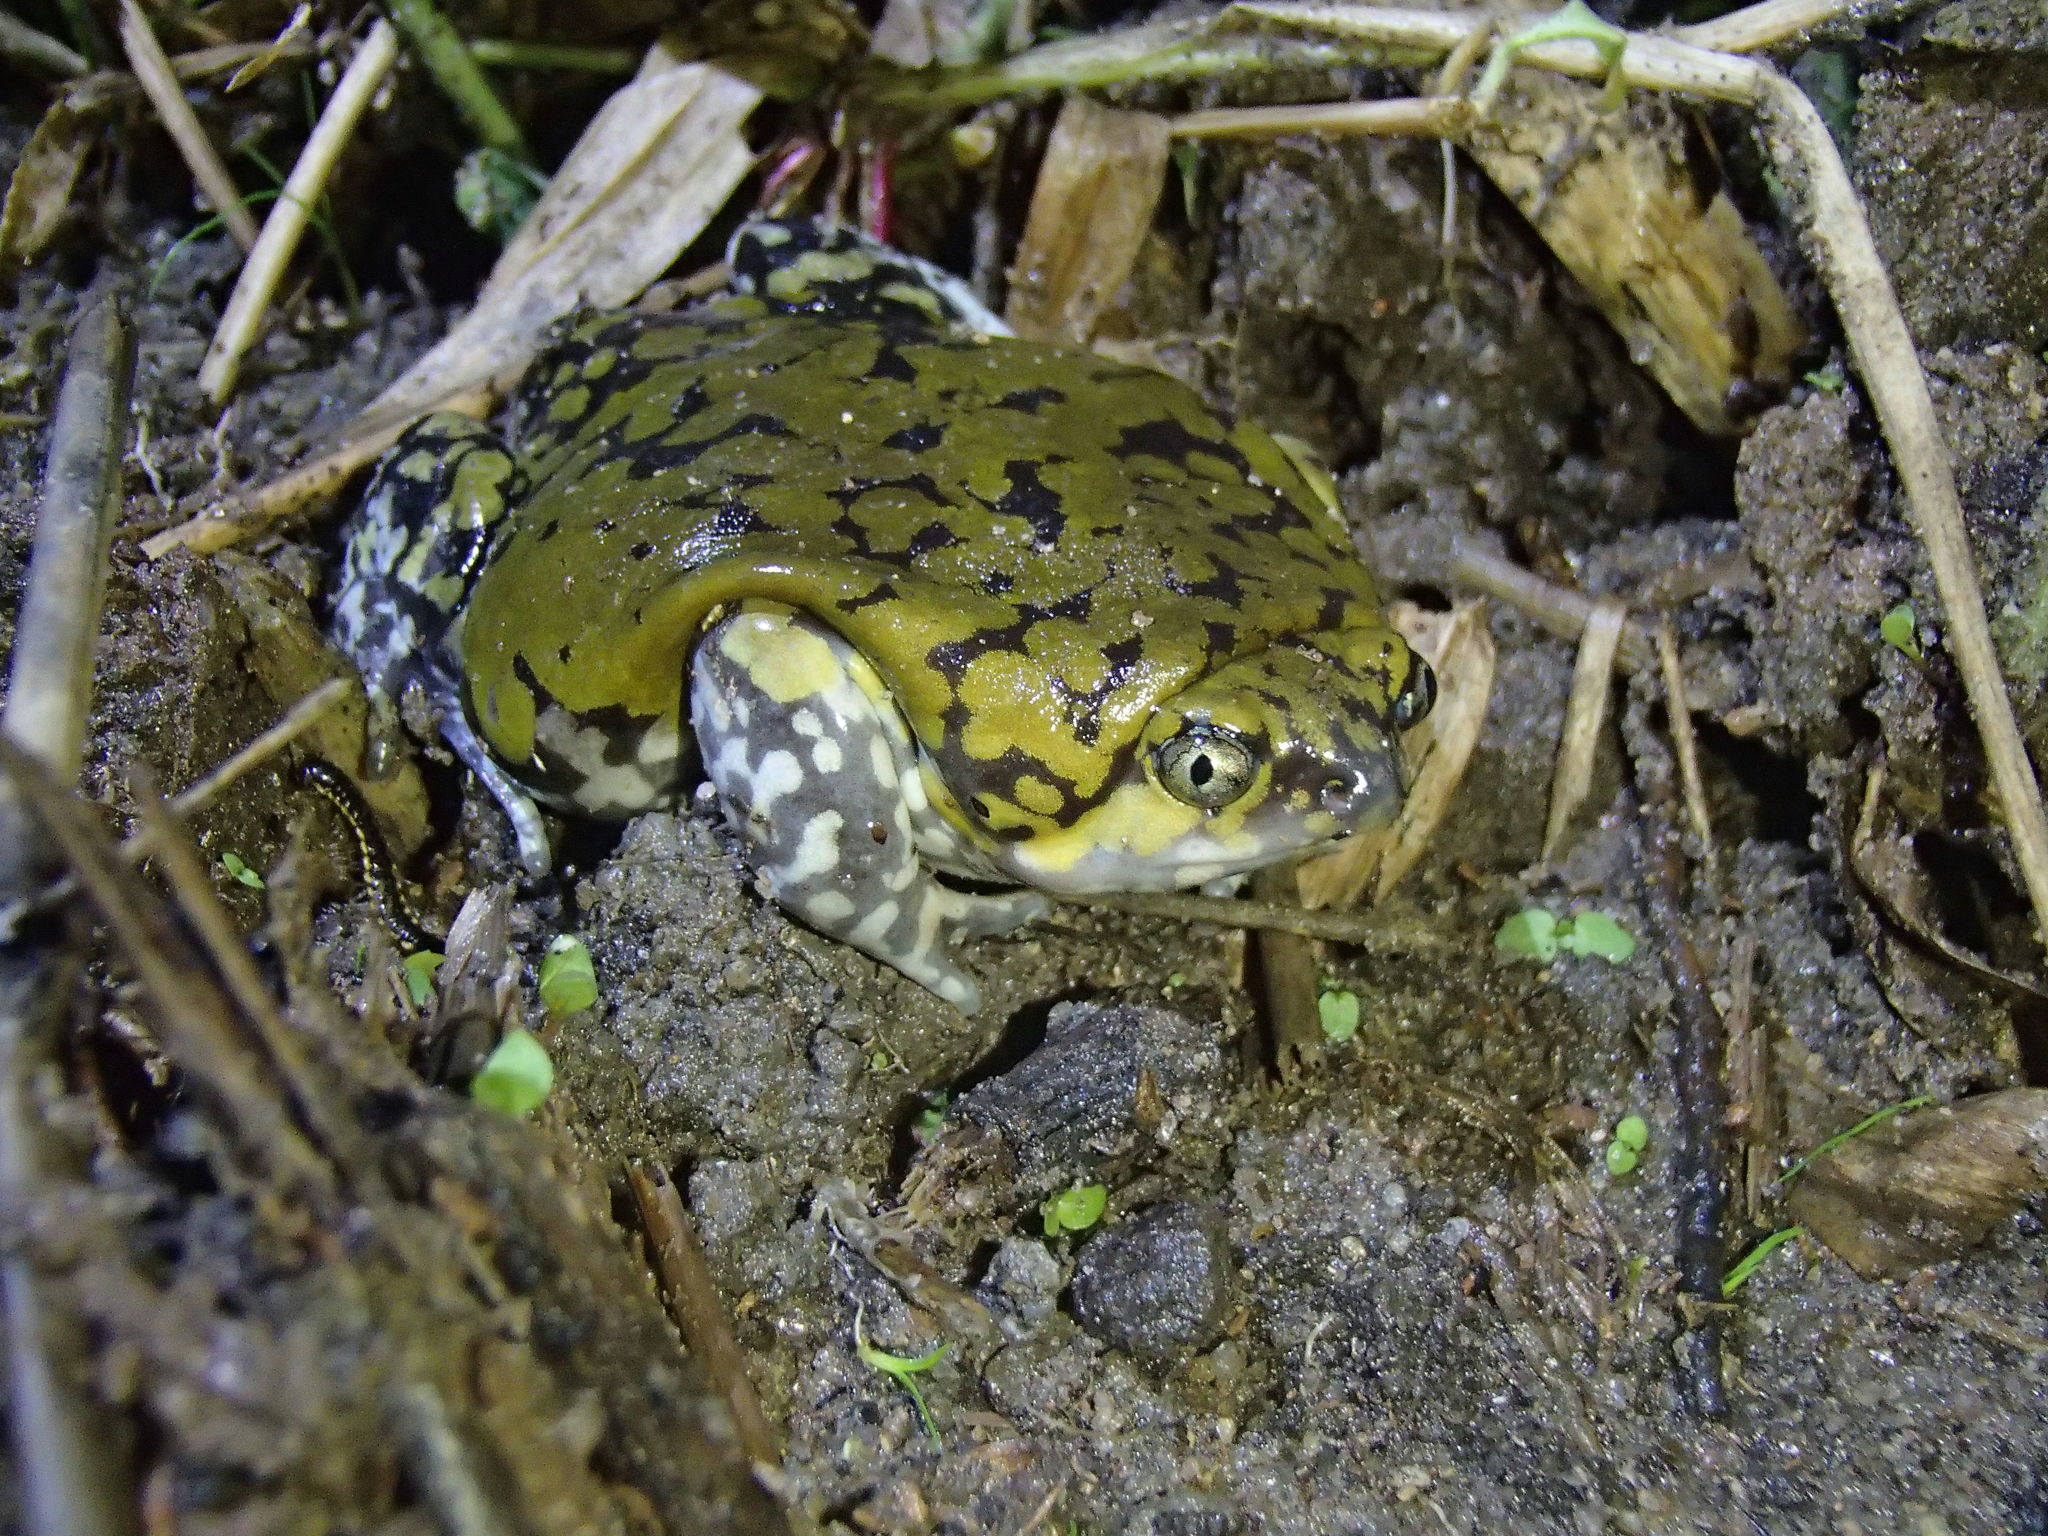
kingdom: Animalia
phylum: Chordata
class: Amphibia
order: Anura
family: Microhylidae
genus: Dermatonotus
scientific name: Dermatonotus muelleri
